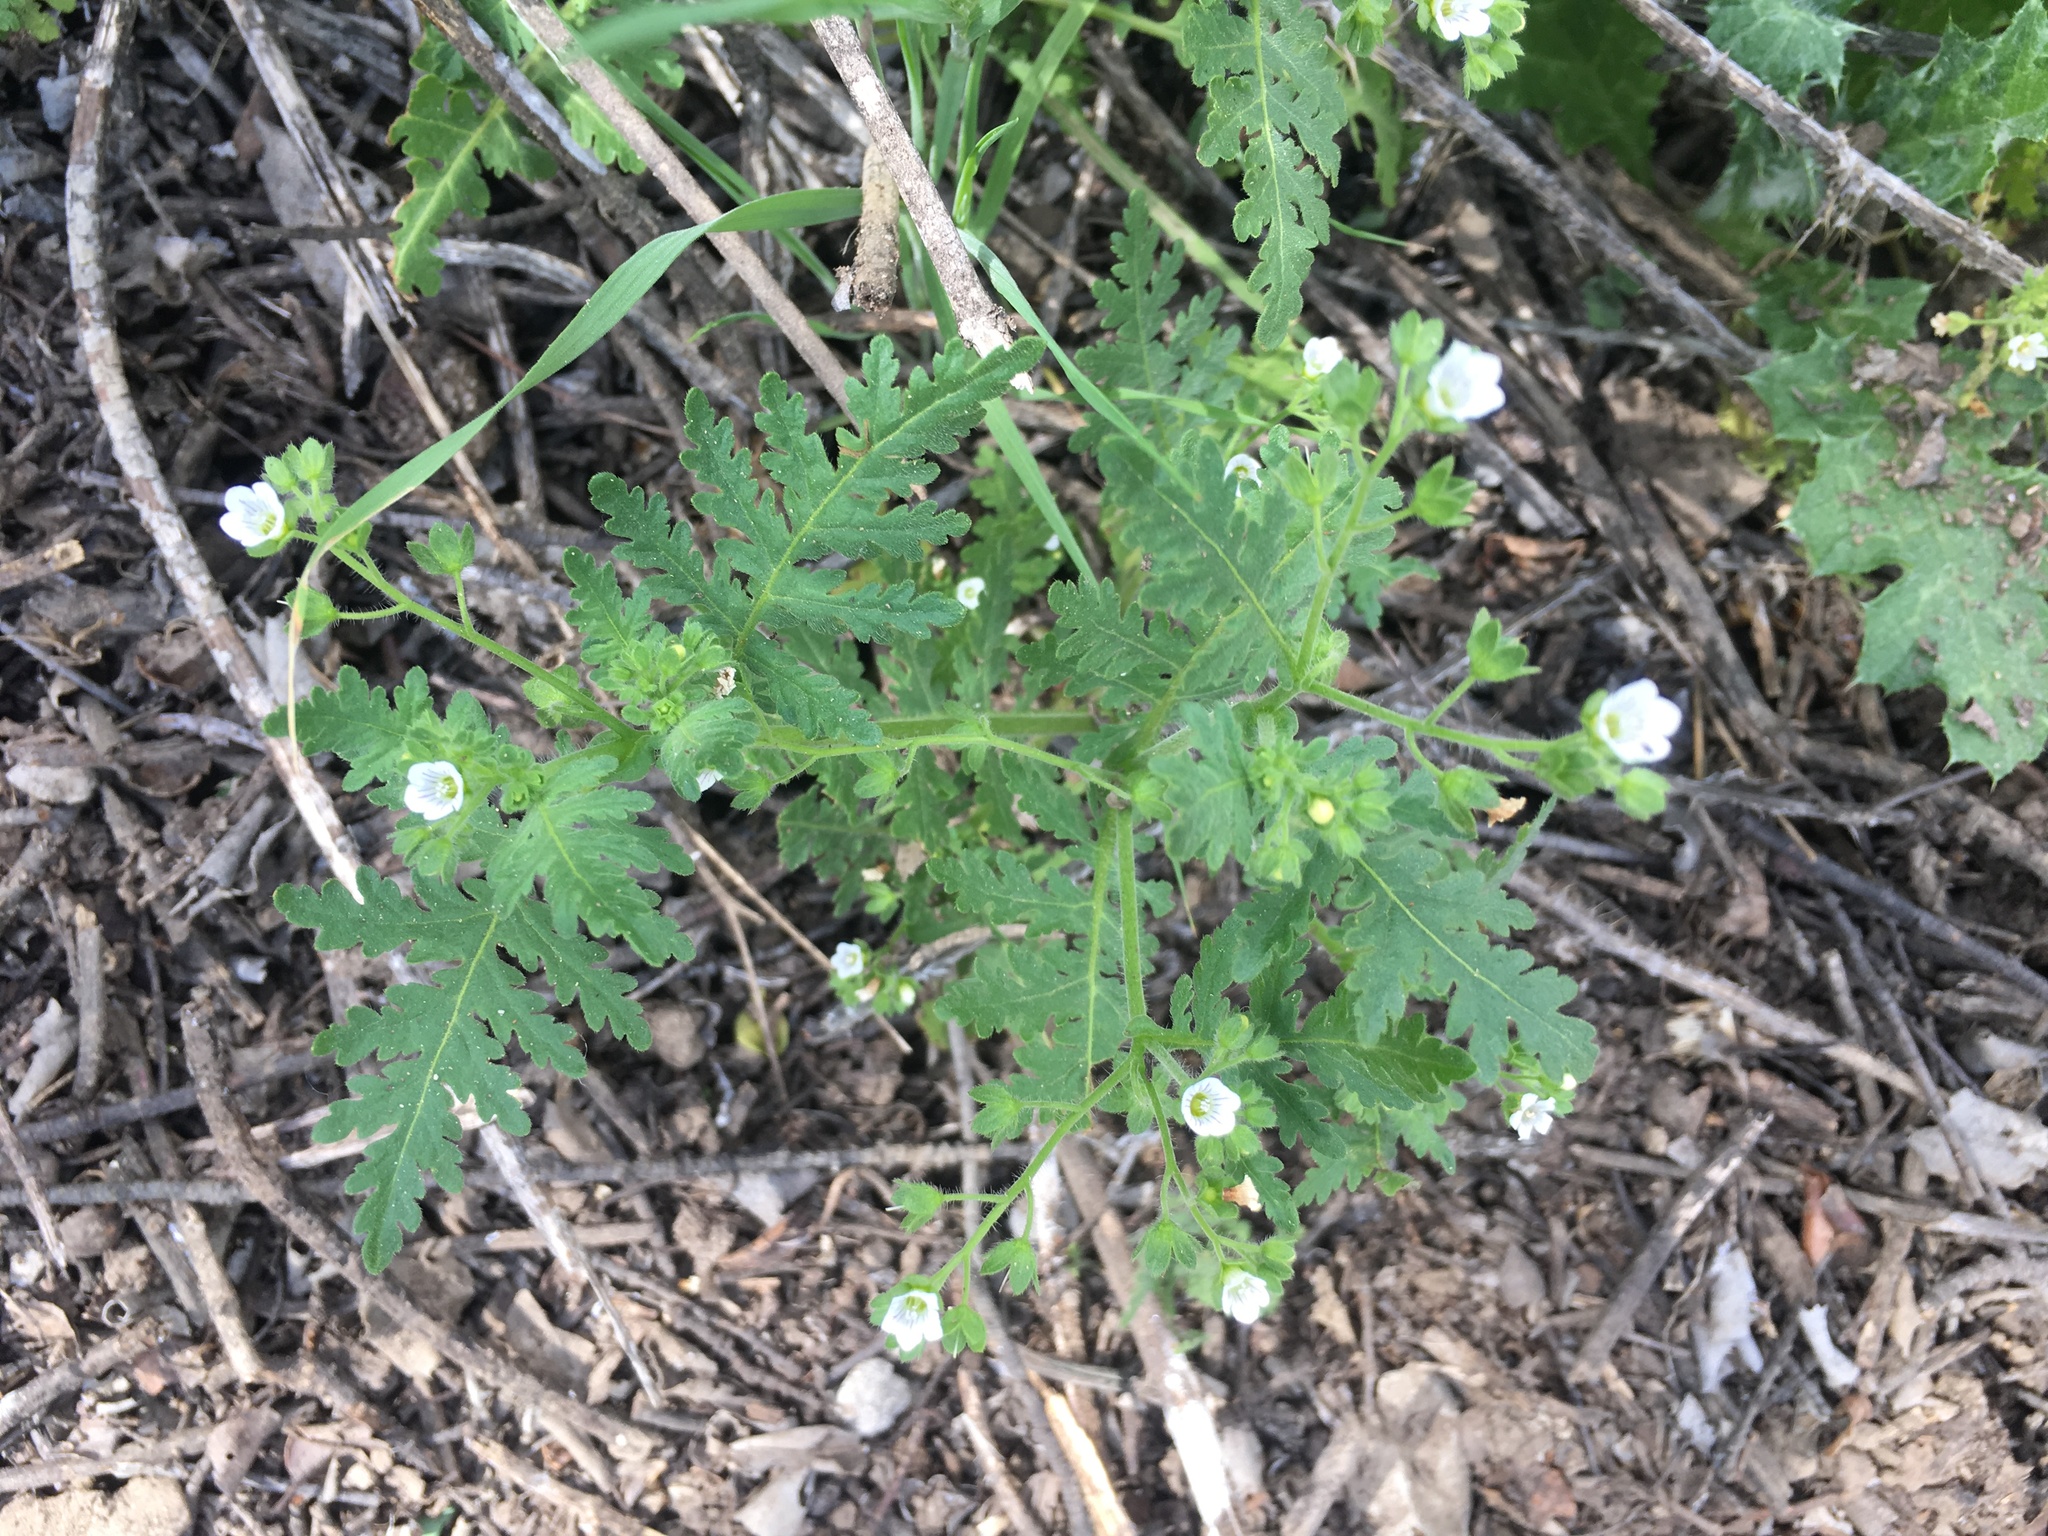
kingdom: Plantae
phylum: Tracheophyta
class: Magnoliopsida
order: Boraginales
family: Hydrophyllaceae
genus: Eucrypta
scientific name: Eucrypta chrysanthemifolia
